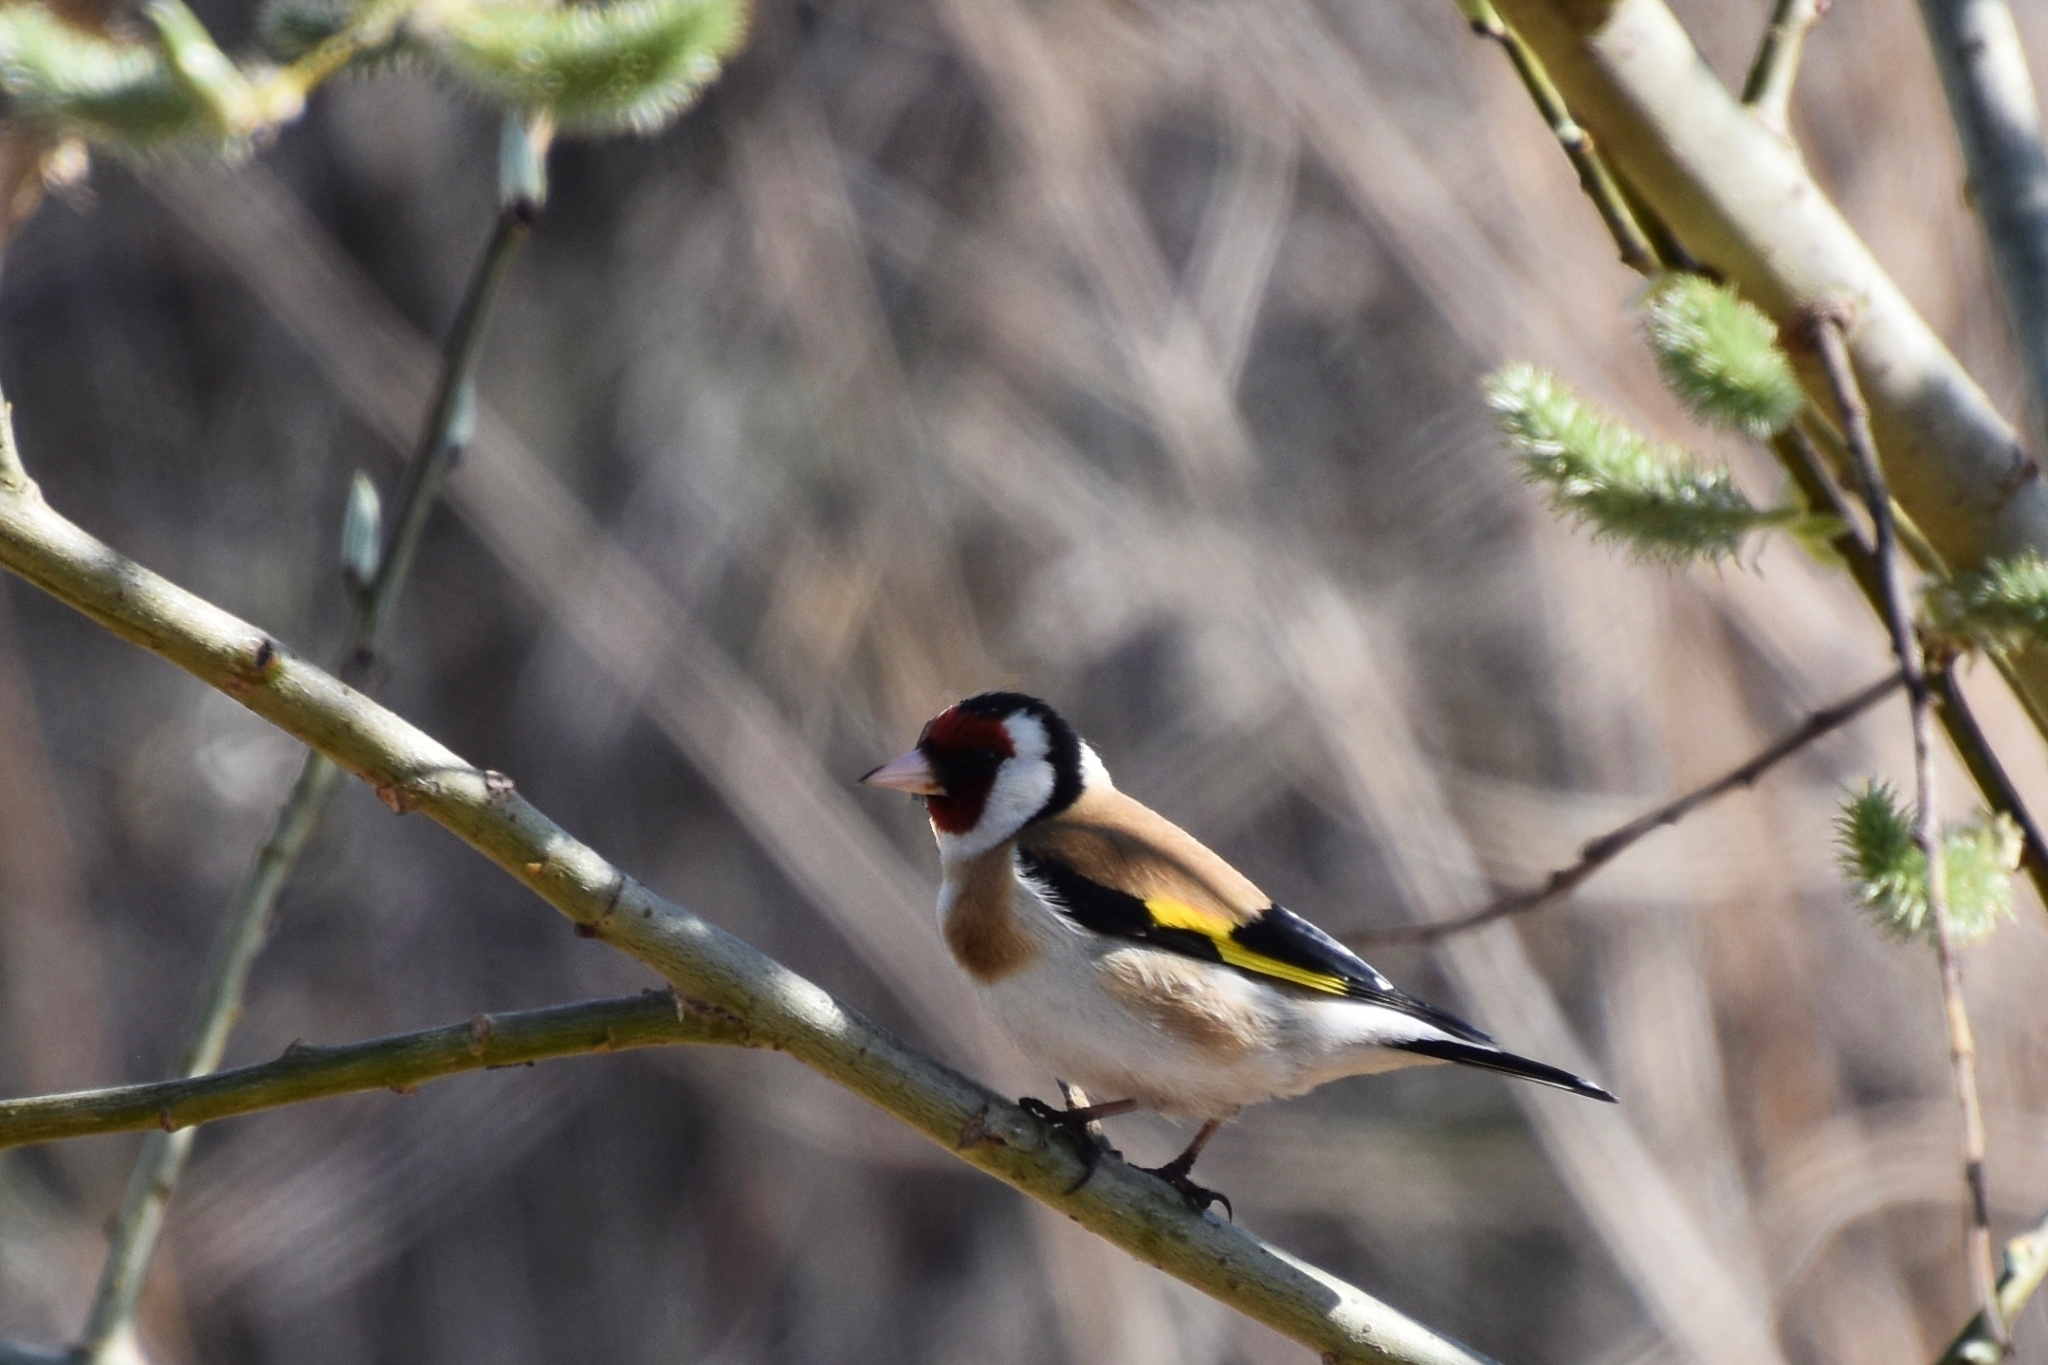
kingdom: Animalia
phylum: Chordata
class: Aves
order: Passeriformes
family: Fringillidae
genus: Carduelis
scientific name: Carduelis carduelis
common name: European goldfinch
